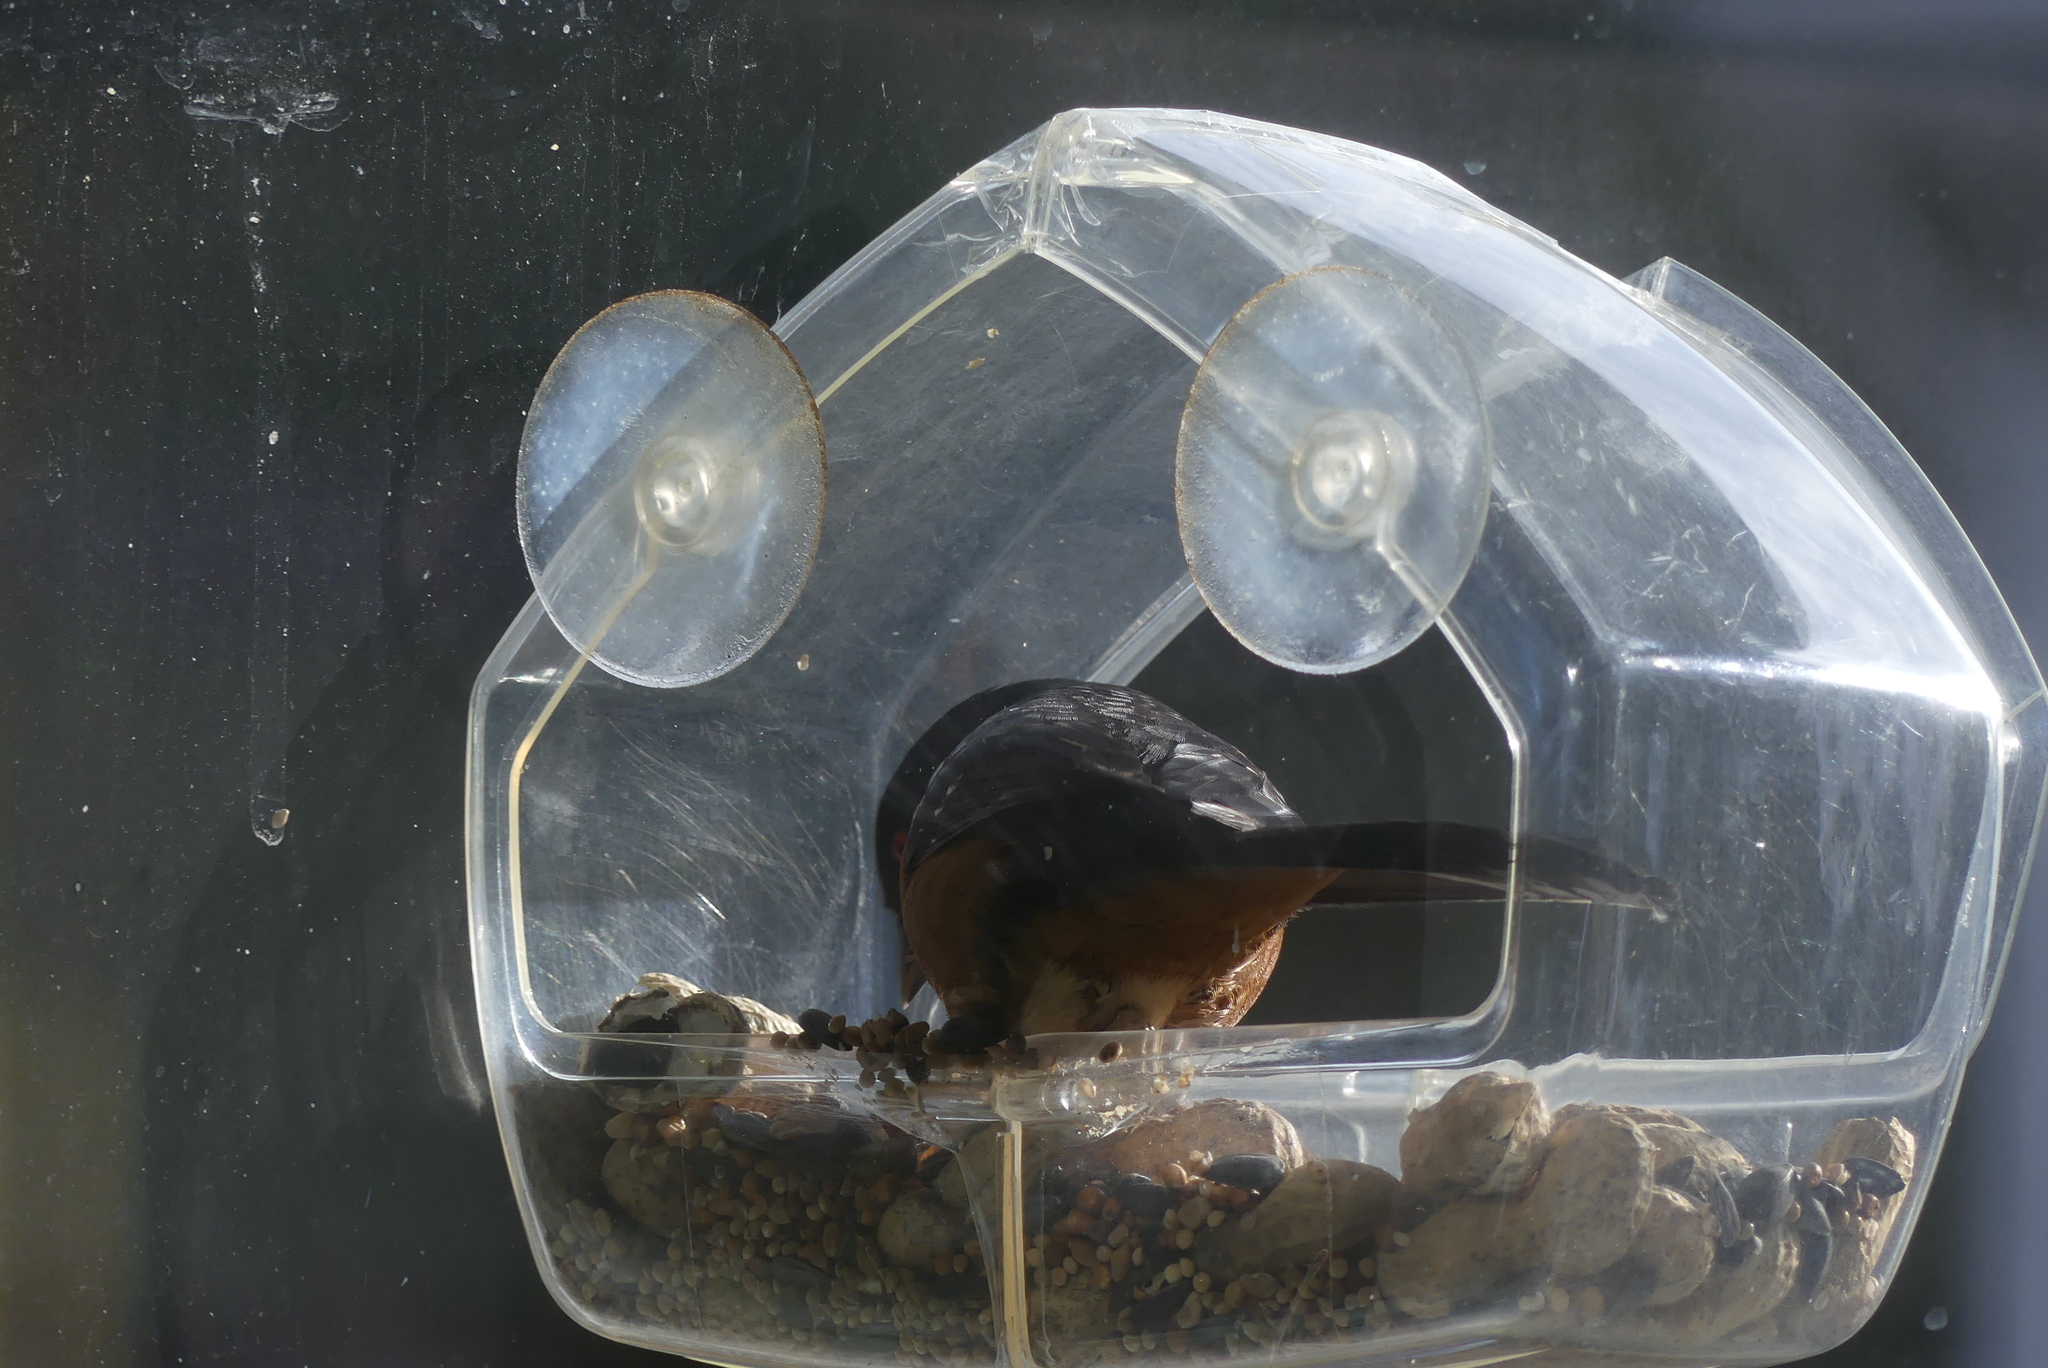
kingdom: Animalia
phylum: Chordata
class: Aves
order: Passeriformes
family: Passerellidae
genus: Pipilo
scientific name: Pipilo maculatus
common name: Spotted towhee
